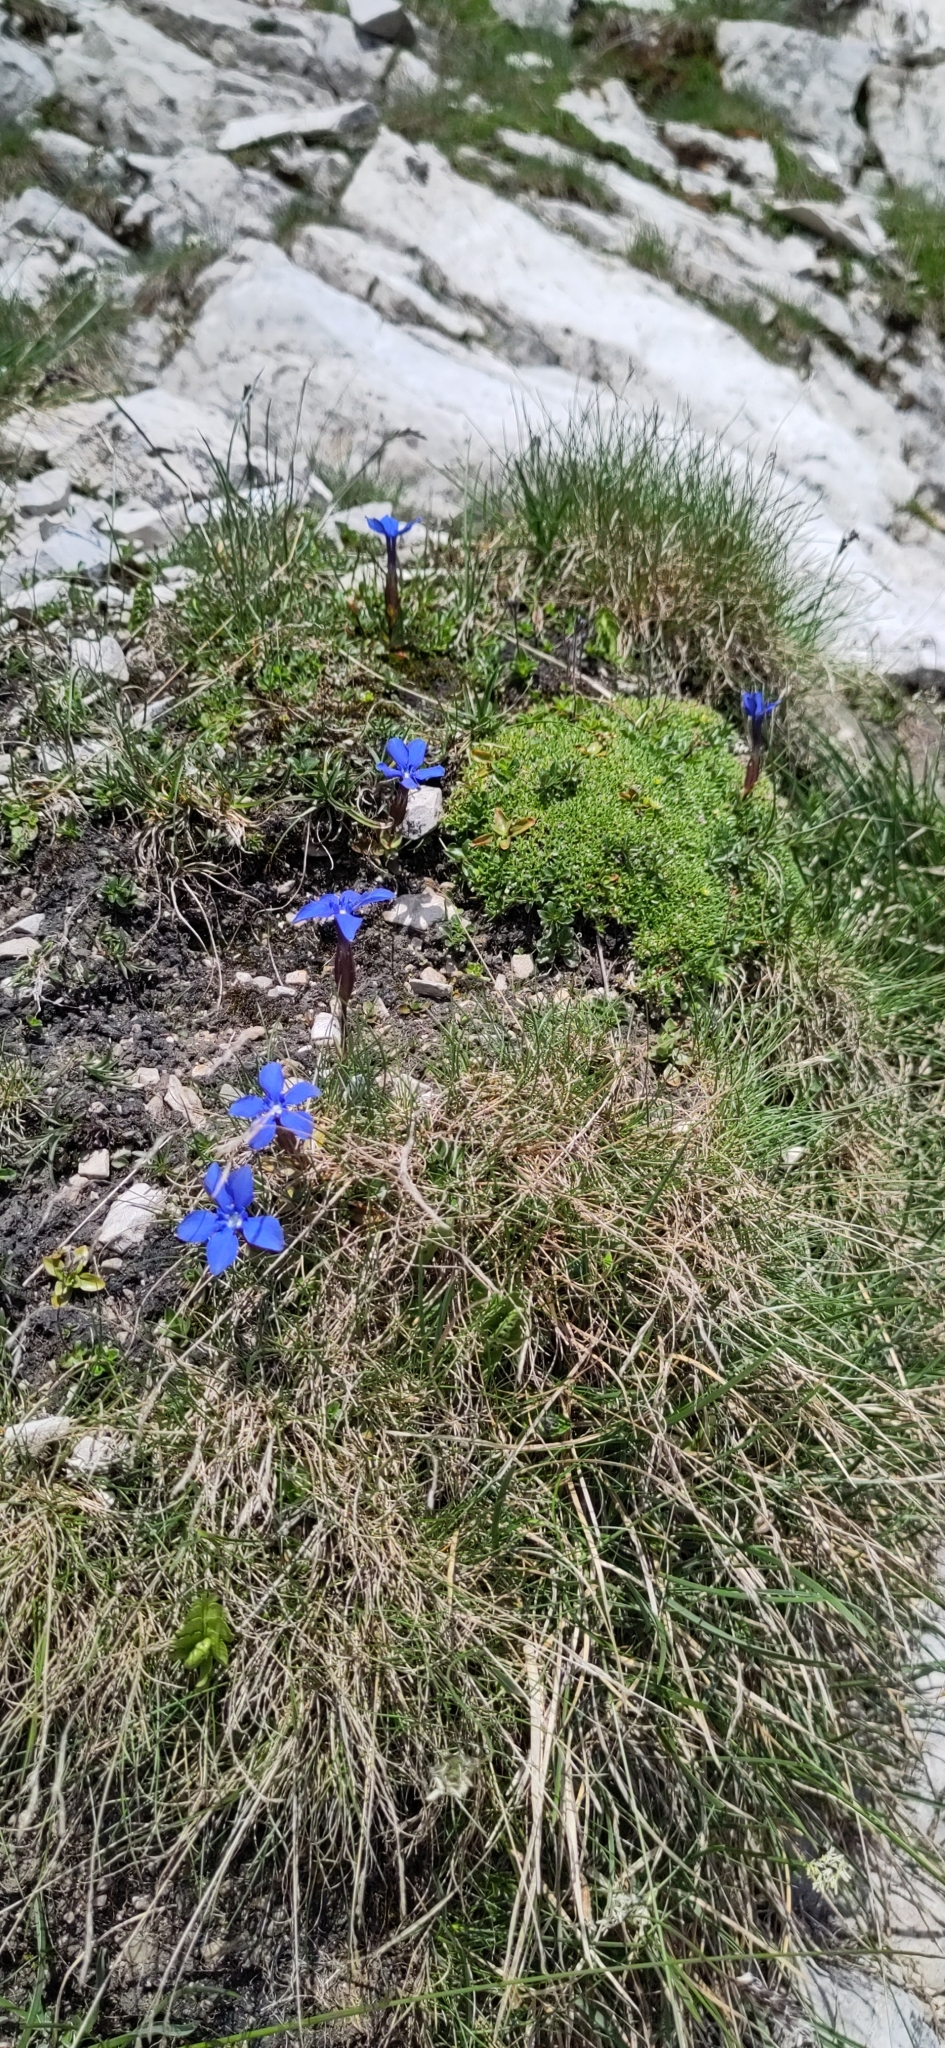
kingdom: Plantae
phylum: Tracheophyta
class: Magnoliopsida
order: Gentianales
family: Gentianaceae
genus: Gentiana
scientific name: Gentiana verna
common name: Spring gentian
